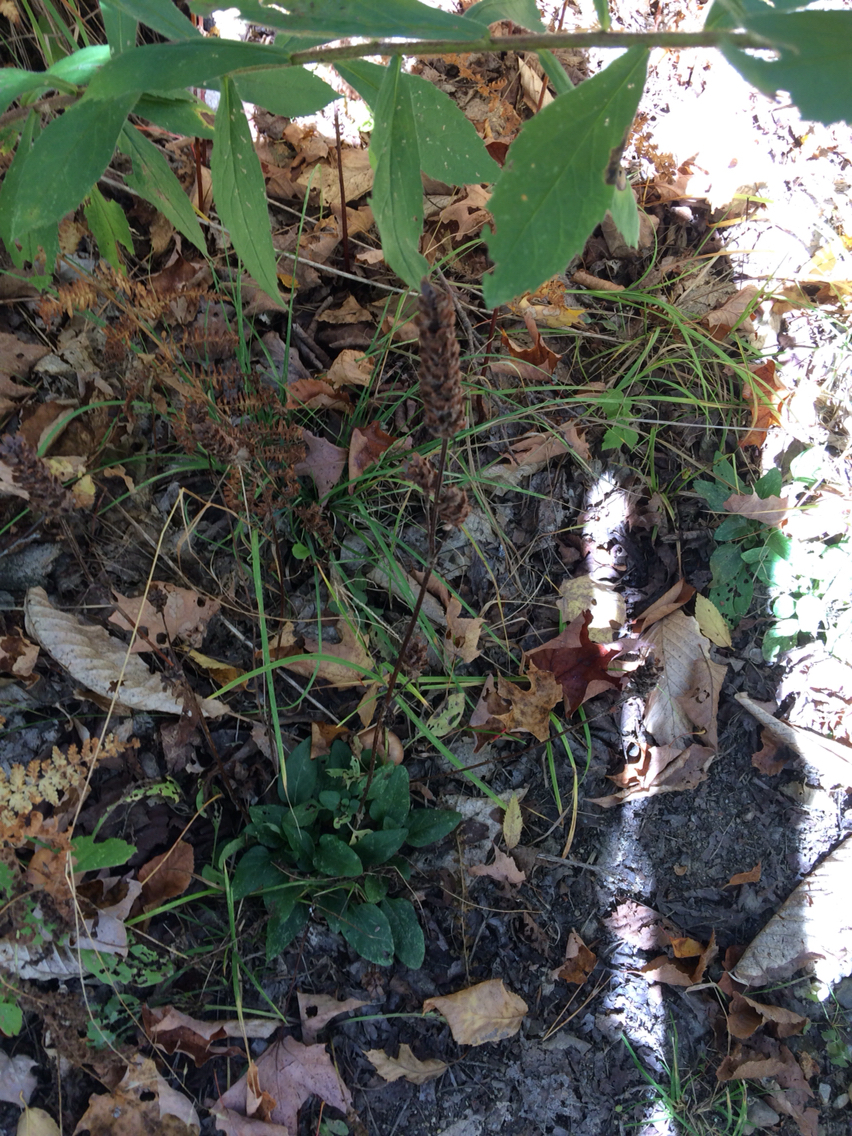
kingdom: Plantae
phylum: Tracheophyta
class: Magnoliopsida
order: Lamiales
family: Lamiaceae
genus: Prunella
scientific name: Prunella vulgaris
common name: Heal-all
